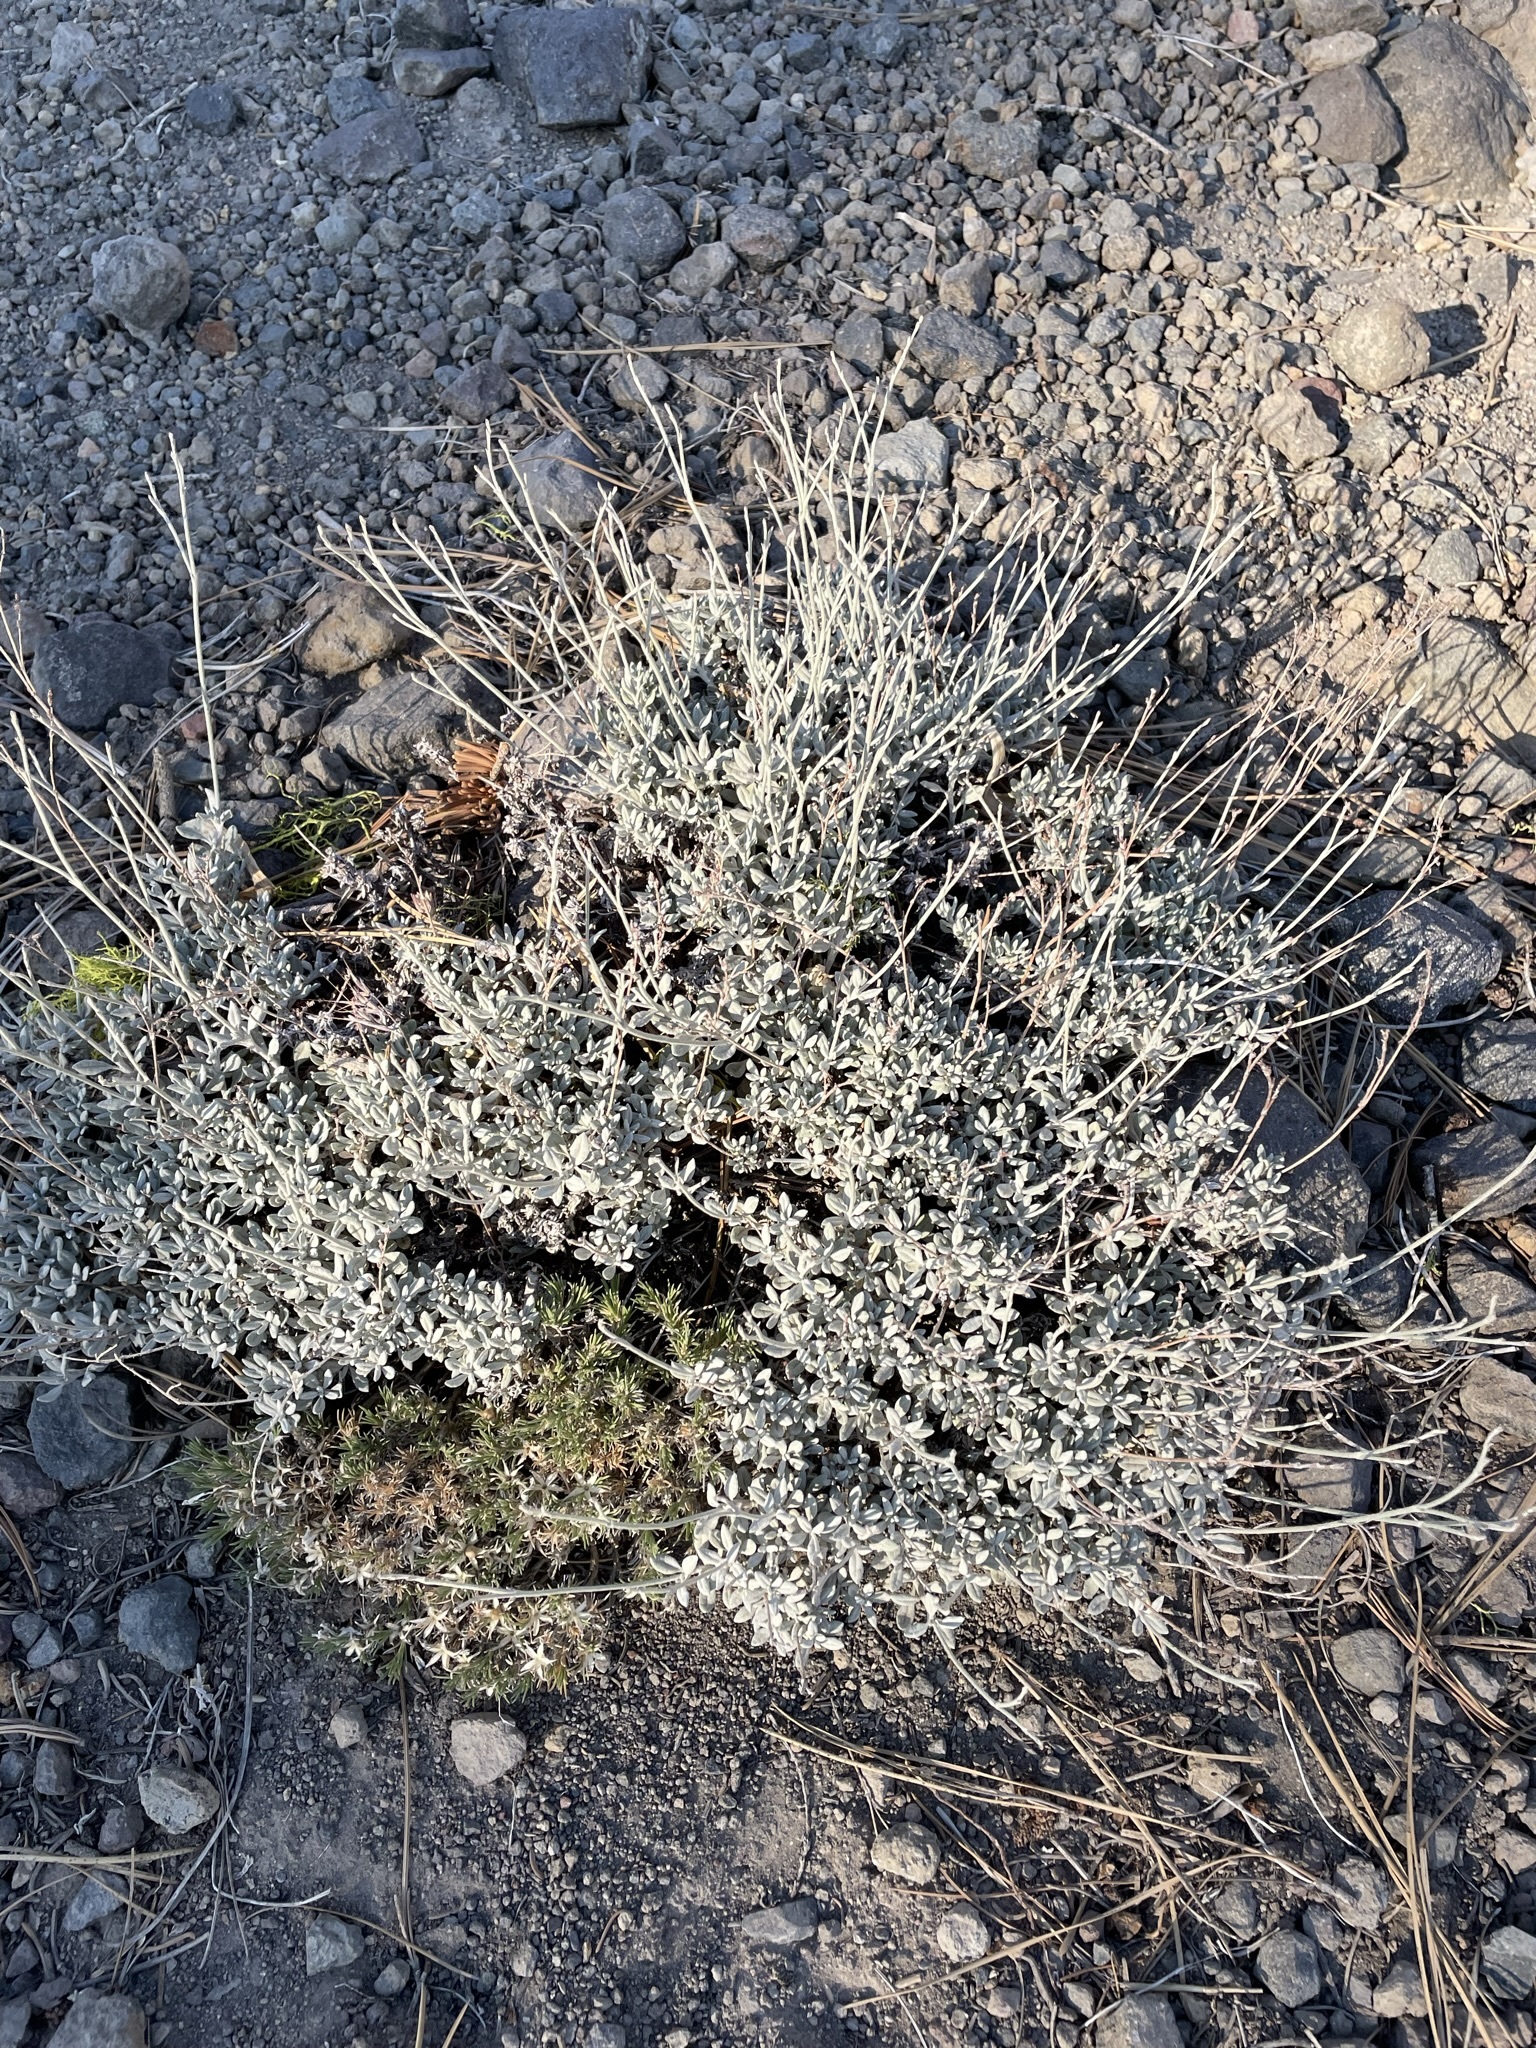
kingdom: Plantae
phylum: Tracheophyta
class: Magnoliopsida
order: Caryophyllales
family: Polygonaceae
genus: Eriogonum
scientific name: Eriogonum wrightii
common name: Bastard-sage
